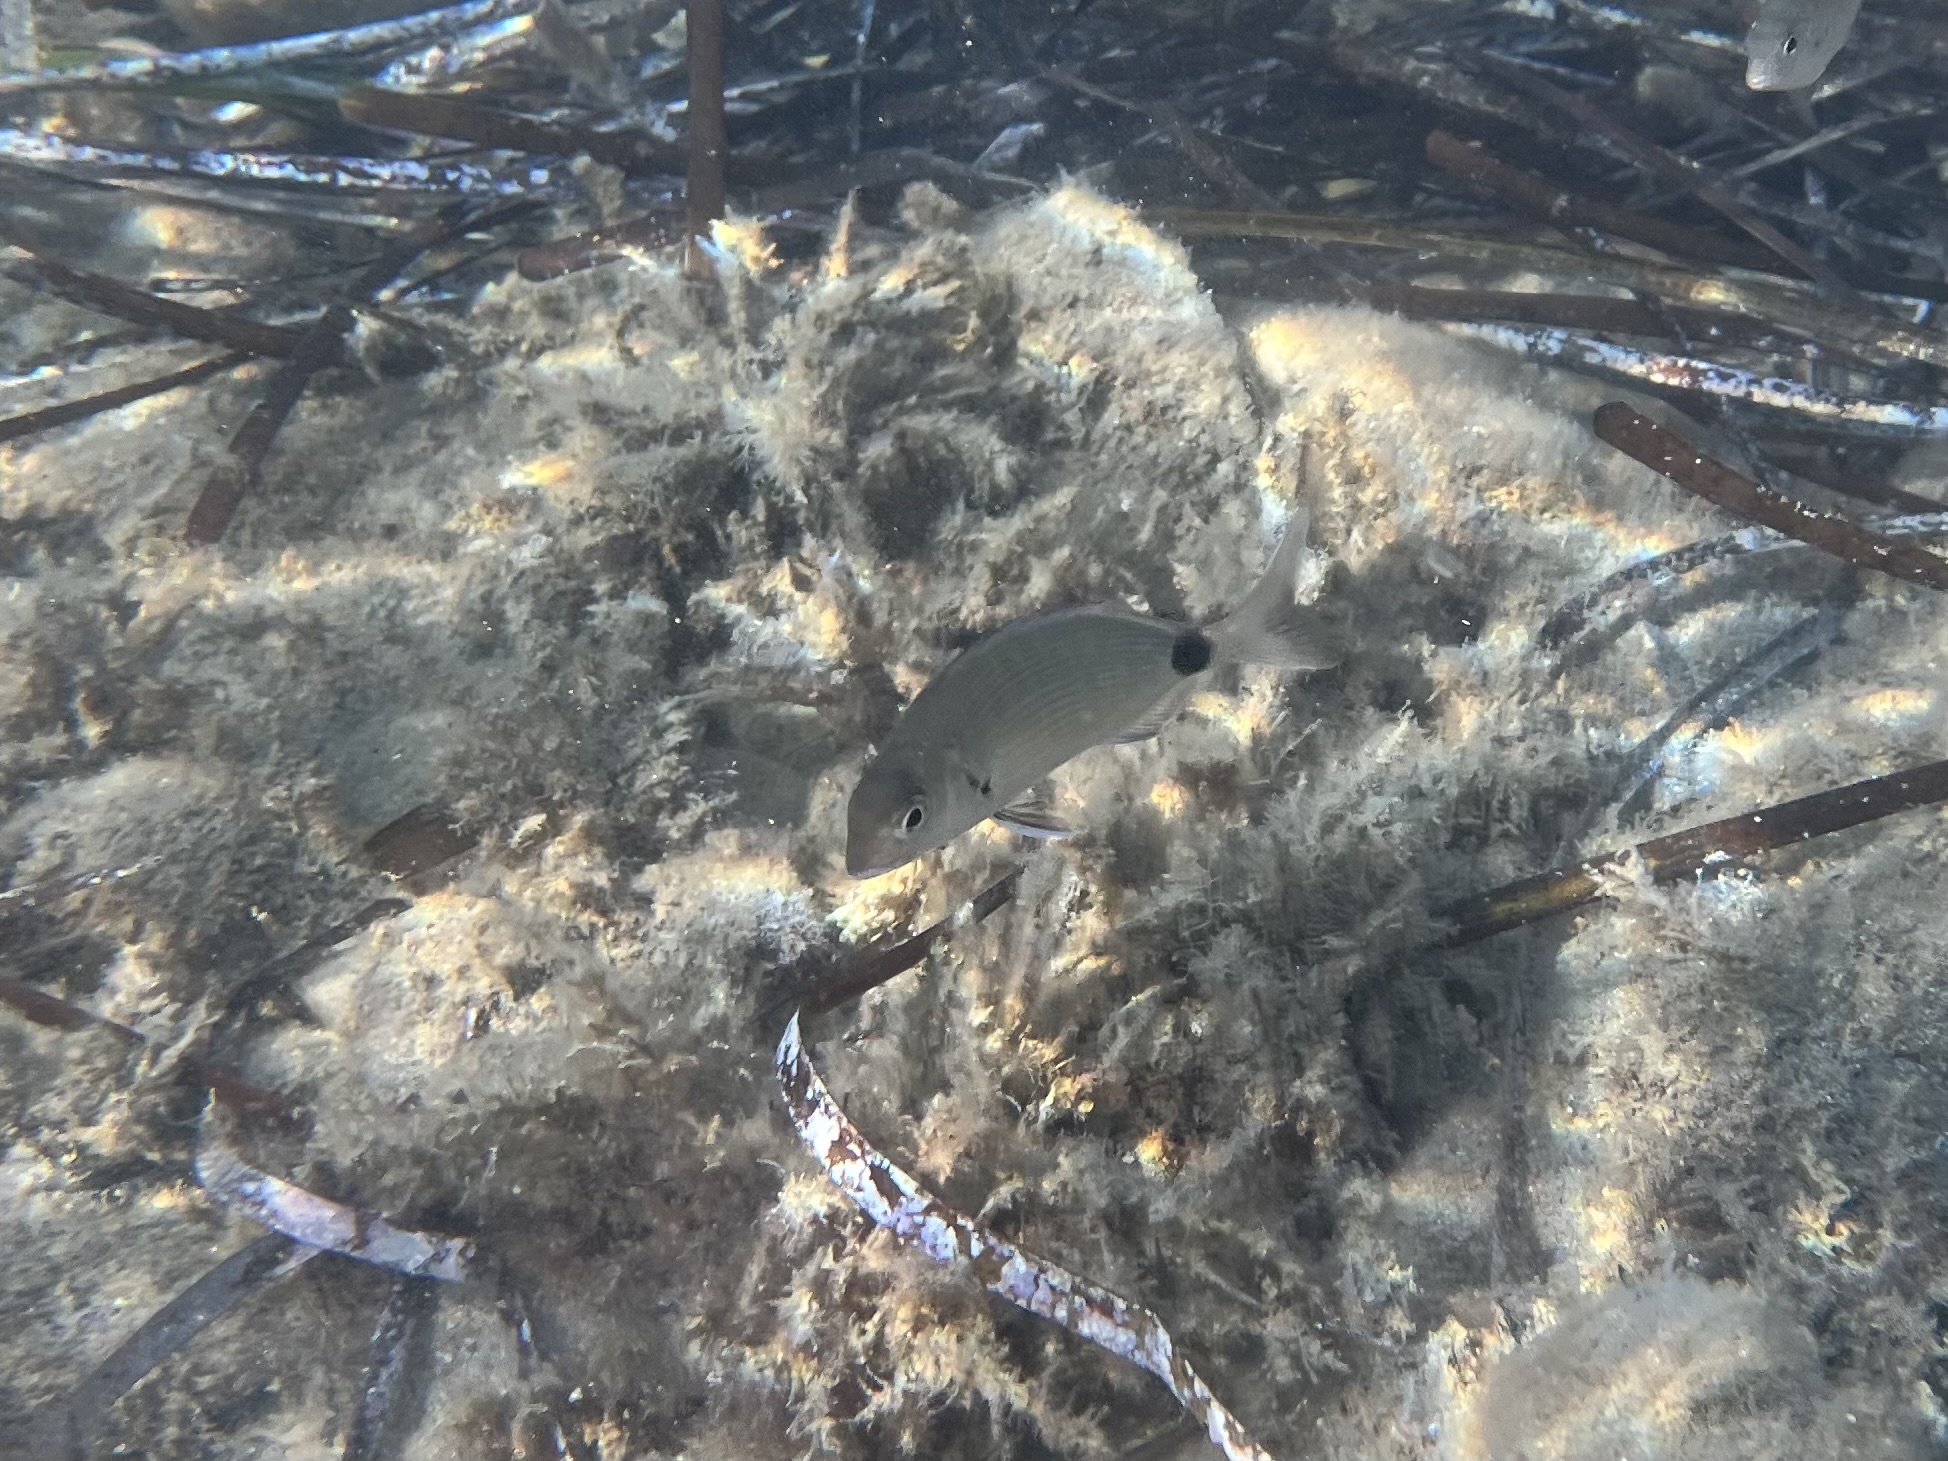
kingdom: Animalia
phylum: Chordata
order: Perciformes
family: Sparidae
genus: Diplodus
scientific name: Diplodus sargus
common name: White seabream
